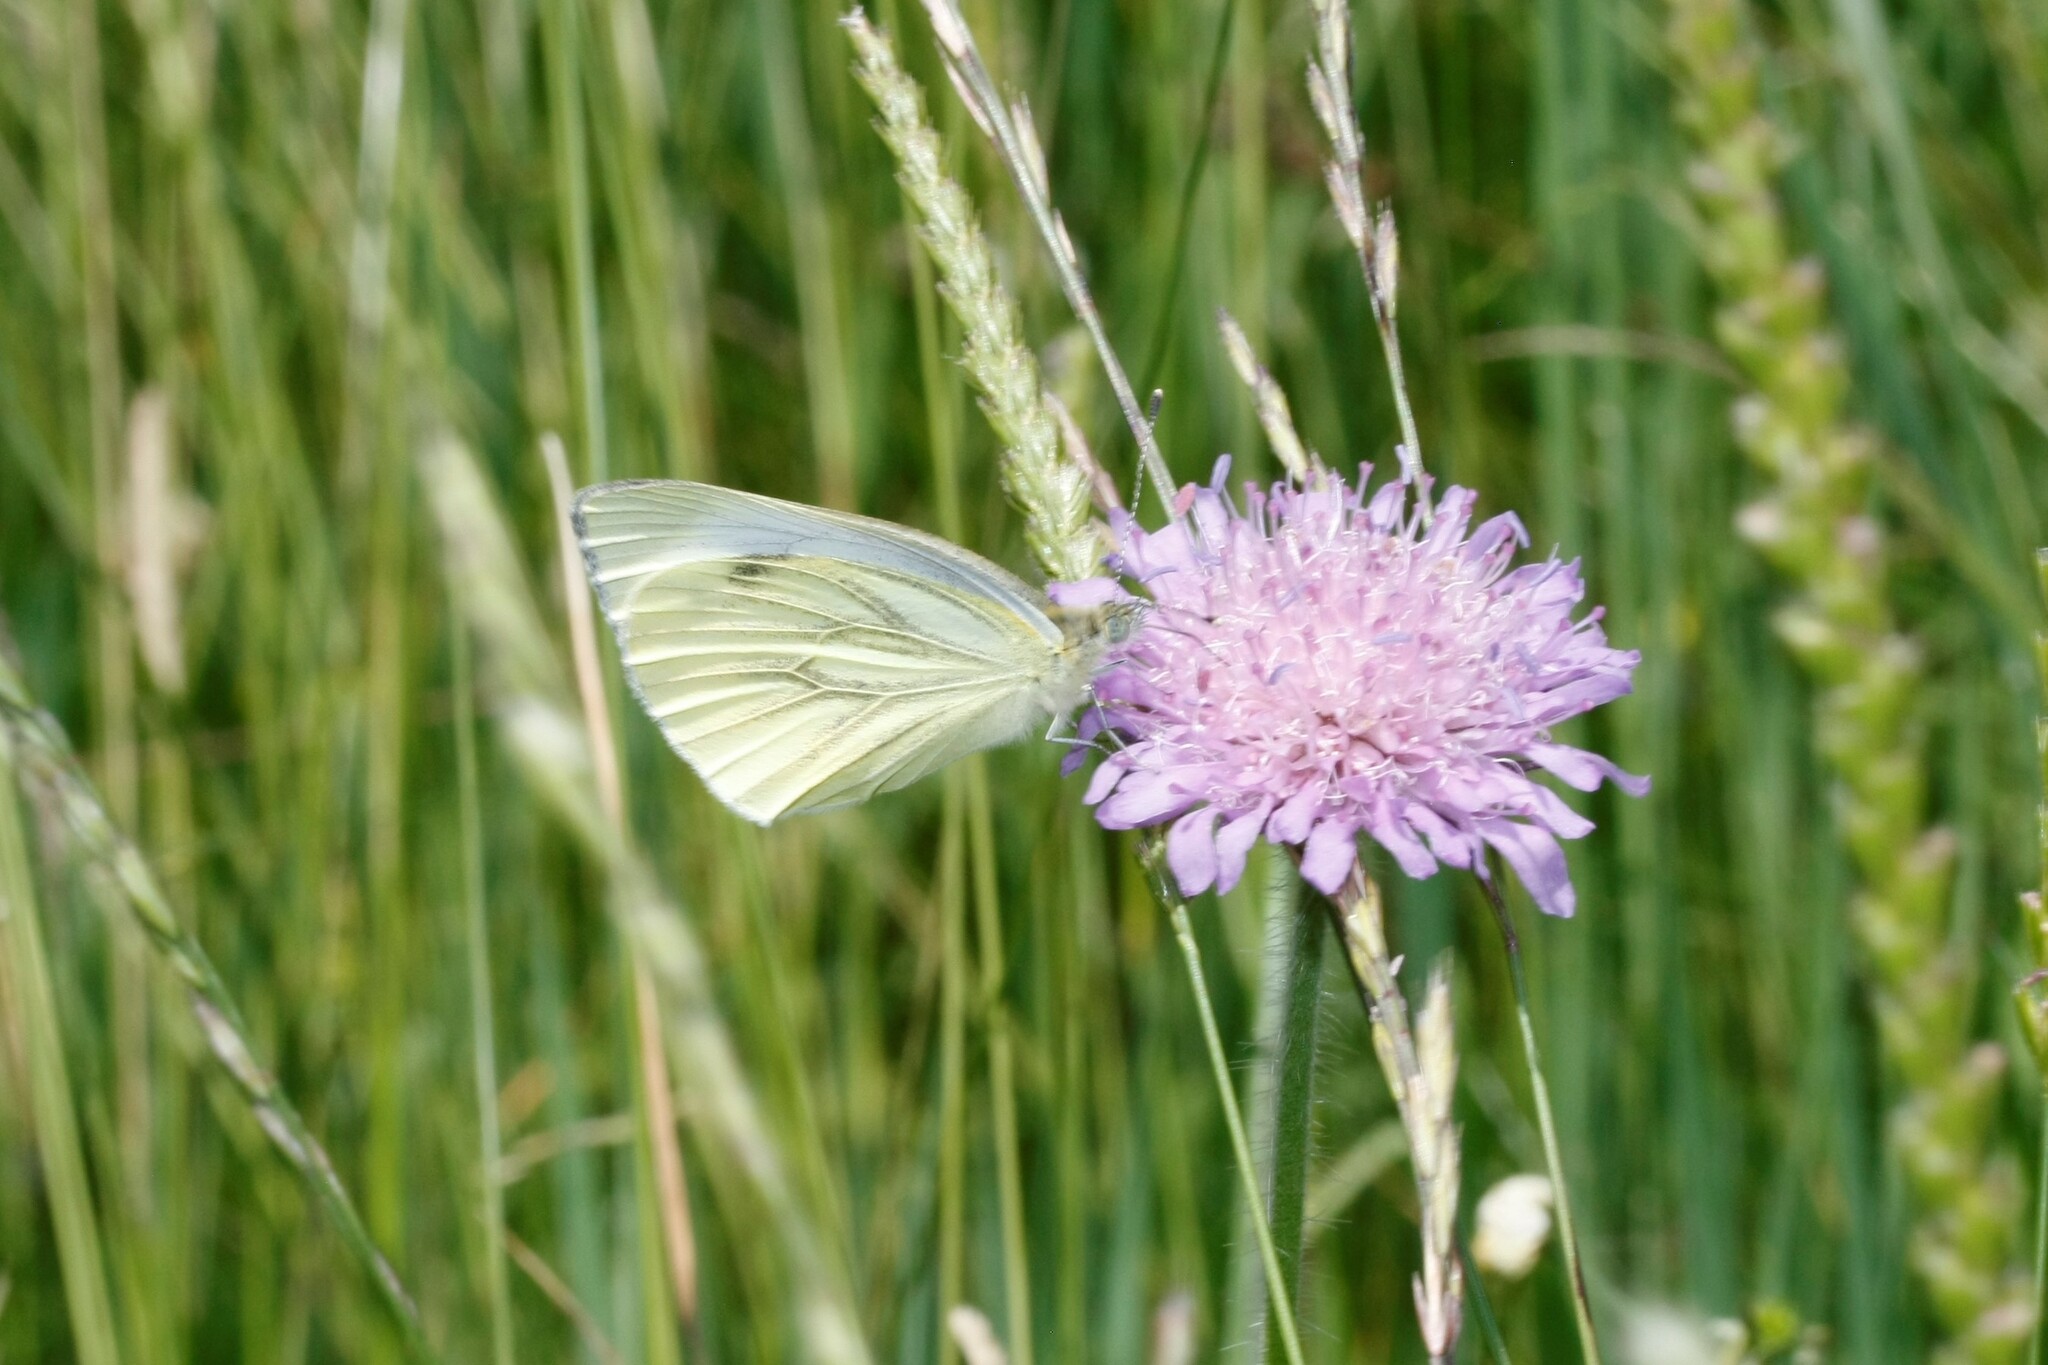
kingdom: Animalia
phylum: Arthropoda
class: Insecta
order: Lepidoptera
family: Pieridae
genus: Pieris
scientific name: Pieris napi
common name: Green-veined white
